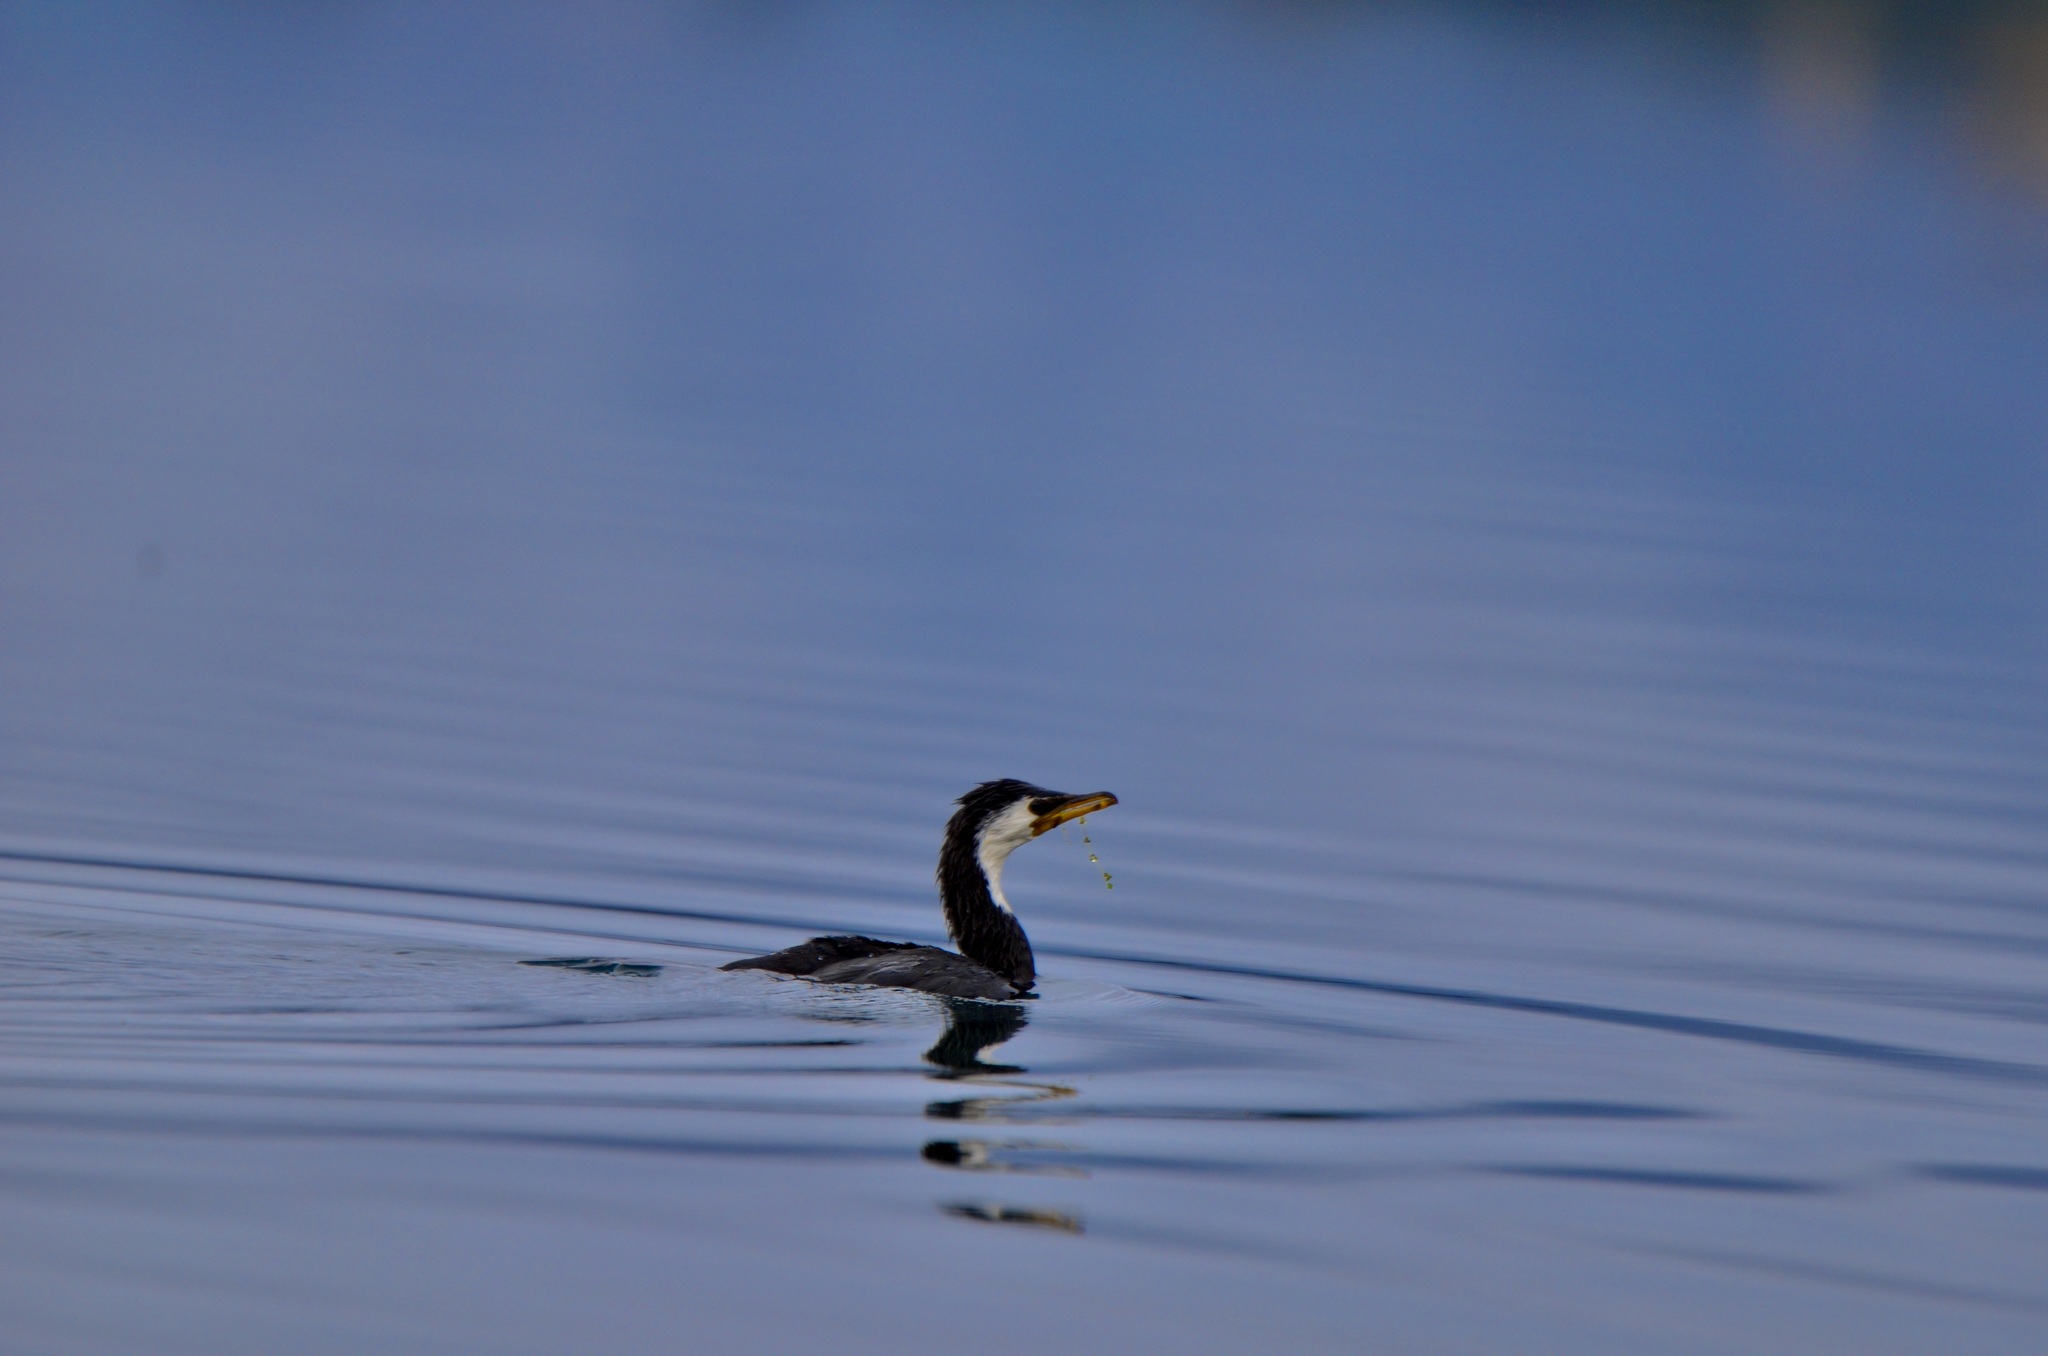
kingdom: Animalia
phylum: Chordata
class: Aves
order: Suliformes
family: Phalacrocoracidae
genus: Microcarbo
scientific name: Microcarbo melanoleucos
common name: Little pied cormorant
